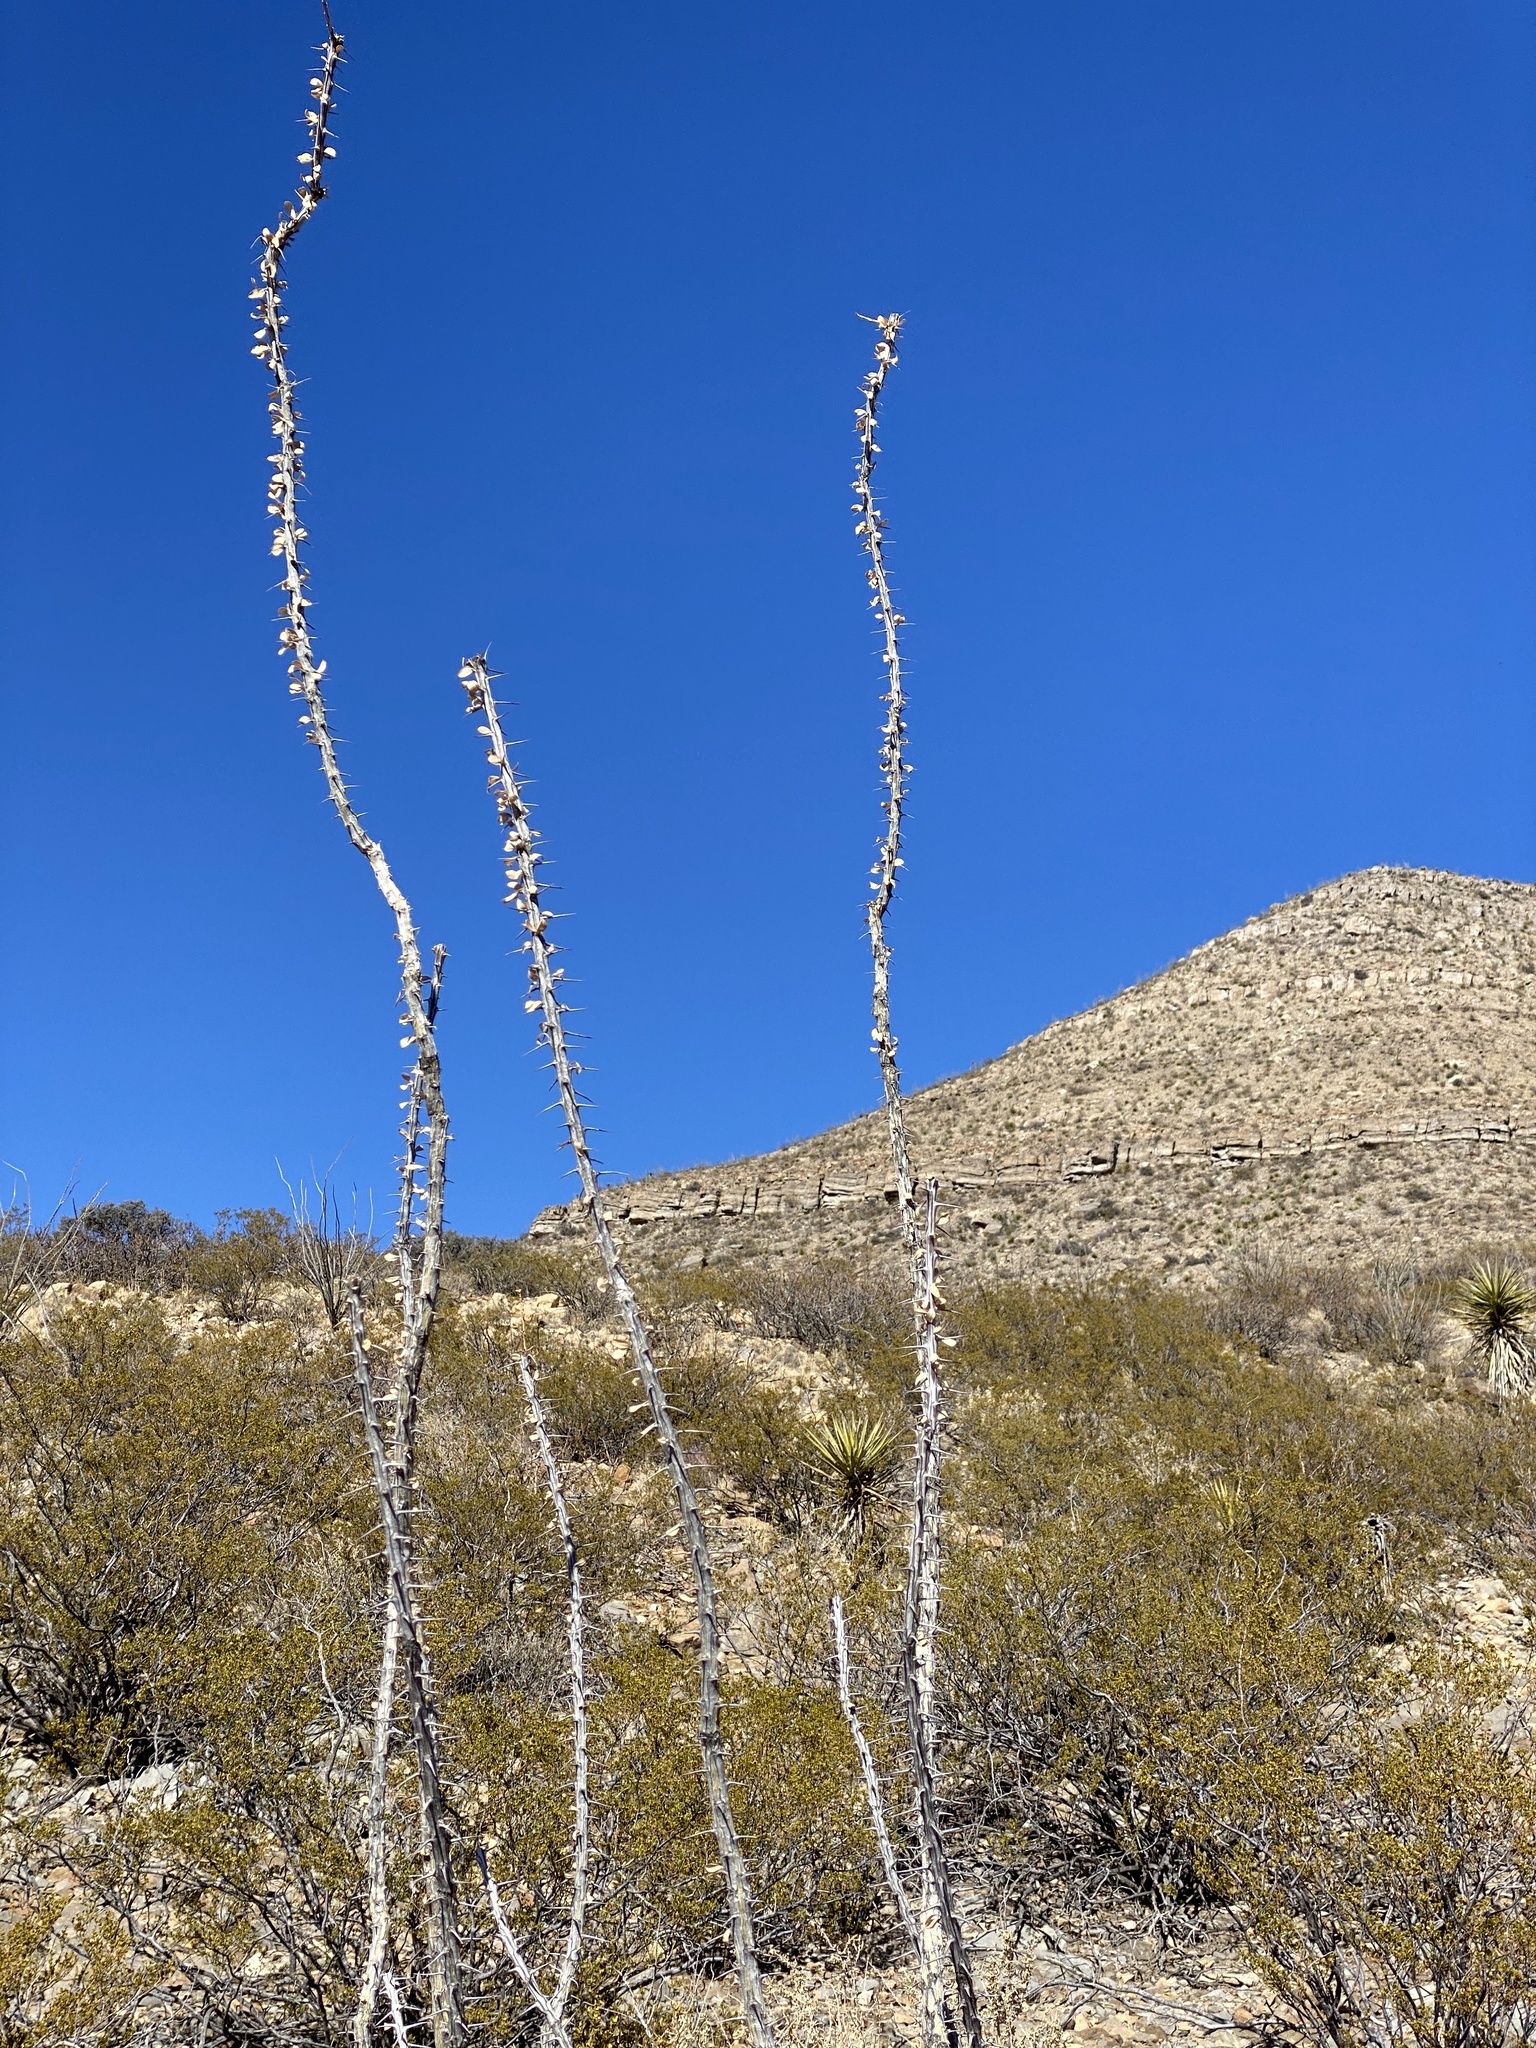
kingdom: Plantae
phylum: Tracheophyta
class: Magnoliopsida
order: Ericales
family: Fouquieriaceae
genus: Fouquieria
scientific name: Fouquieria splendens
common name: Vine-cactus
